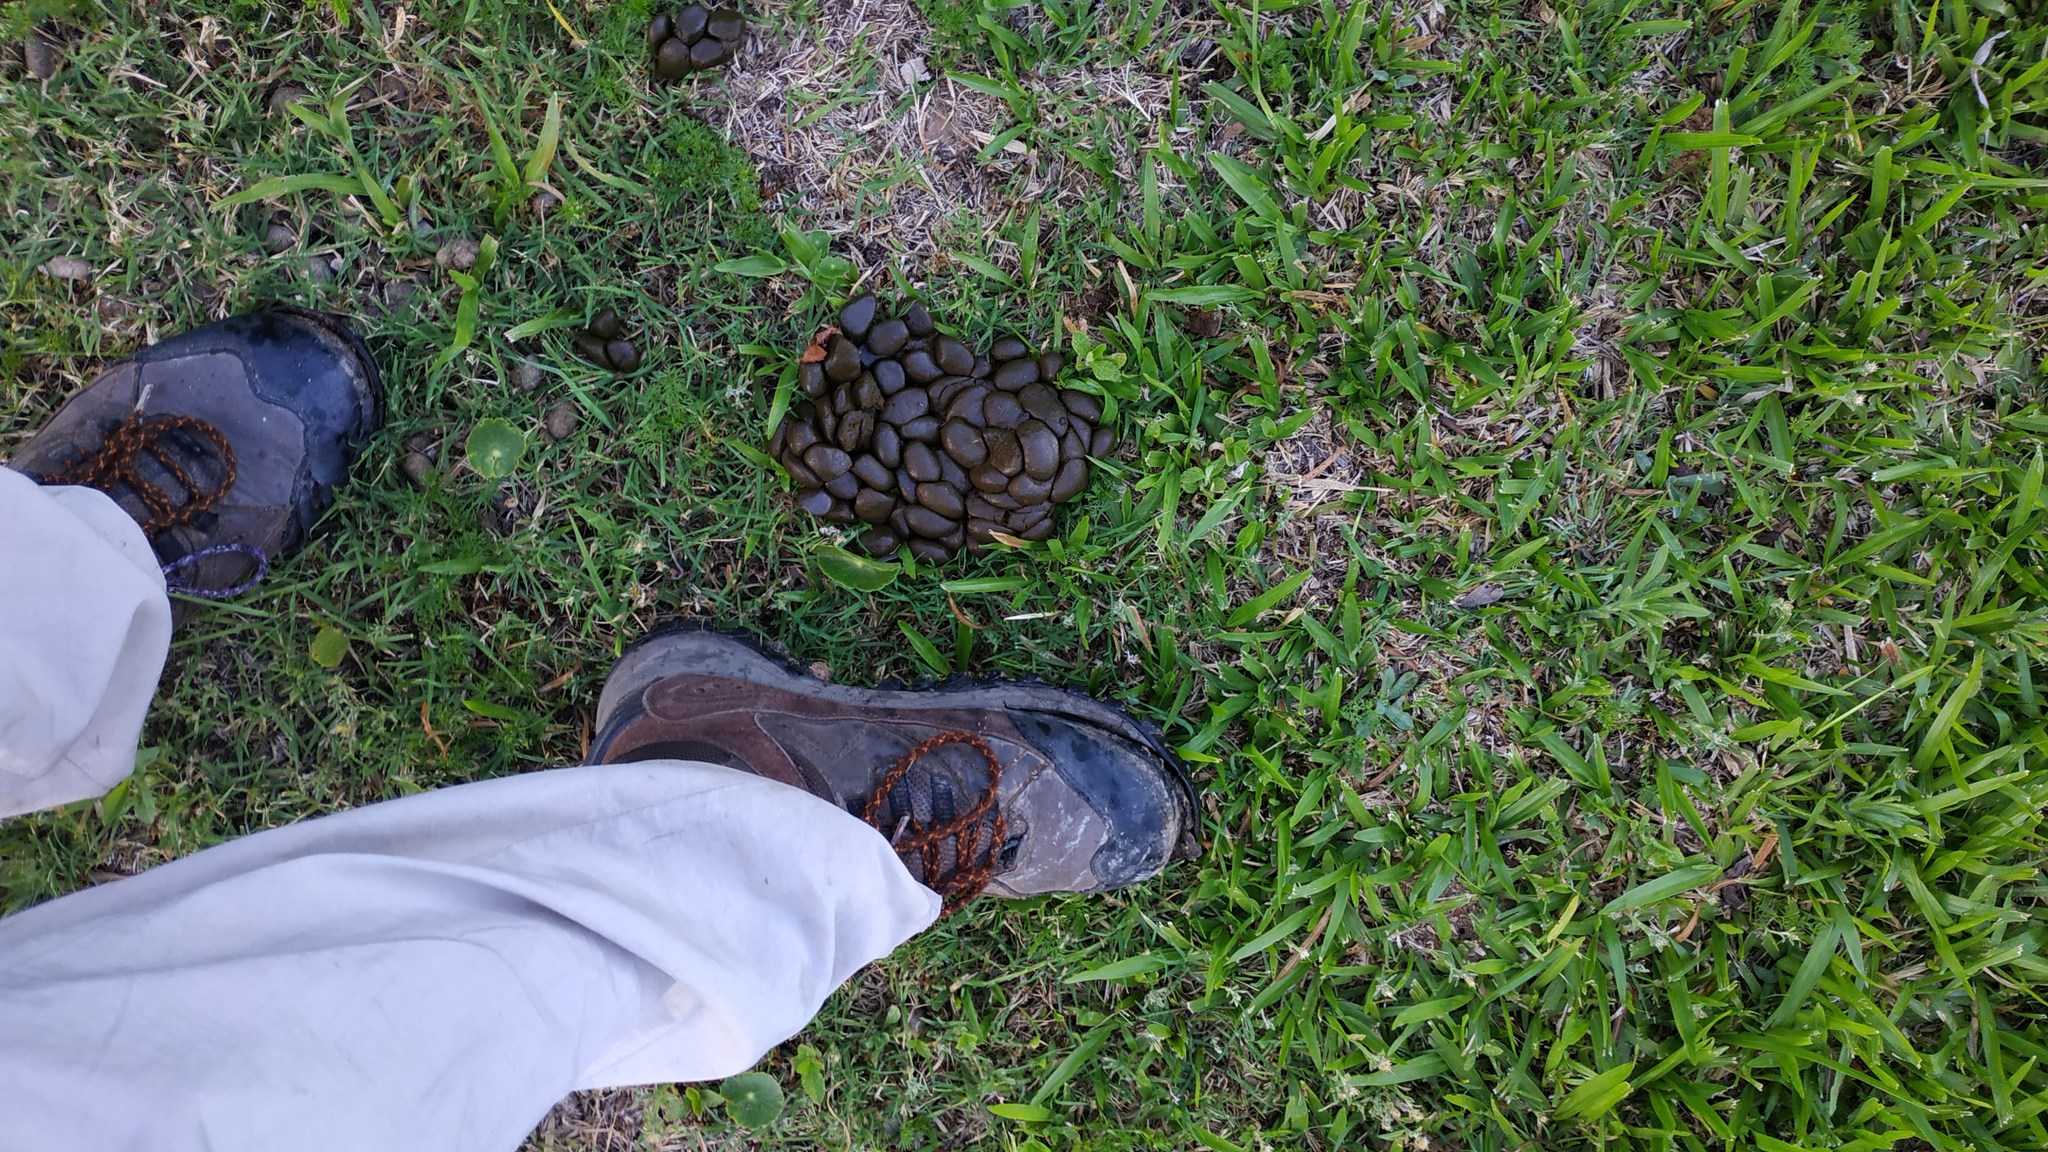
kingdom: Animalia
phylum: Chordata
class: Mammalia
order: Rodentia
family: Caviidae
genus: Hydrochoerus
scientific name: Hydrochoerus hydrochaeris
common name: Capybara
